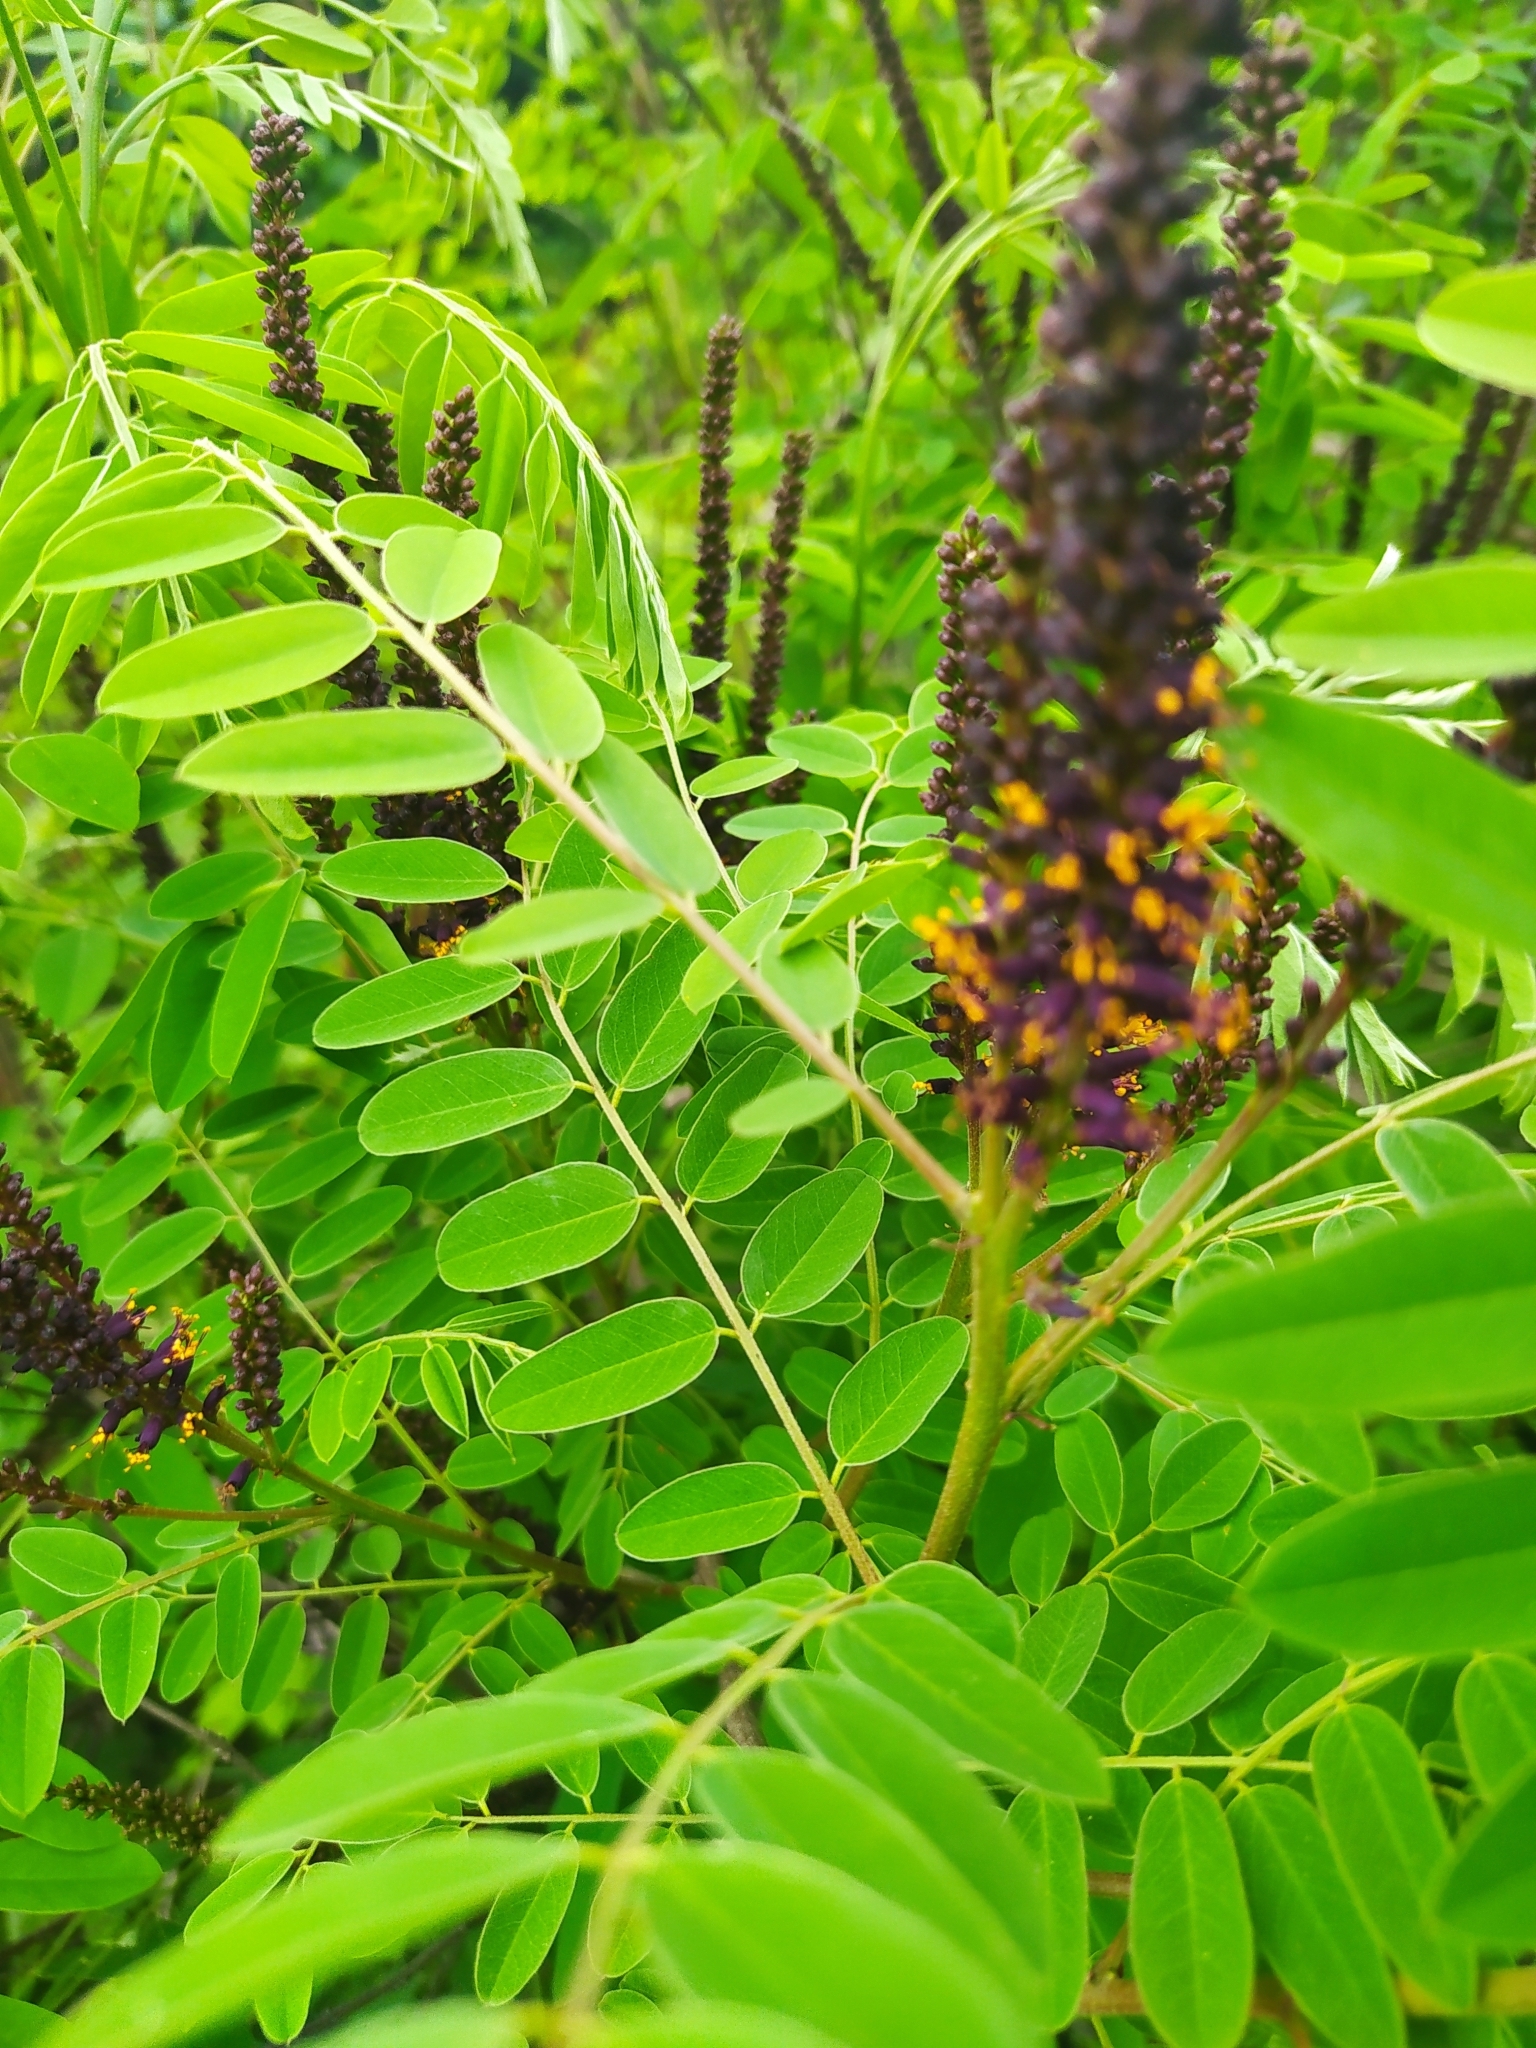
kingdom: Plantae
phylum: Tracheophyta
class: Magnoliopsida
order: Fabales
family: Fabaceae
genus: Amorpha
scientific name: Amorpha fruticosa
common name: False indigo
